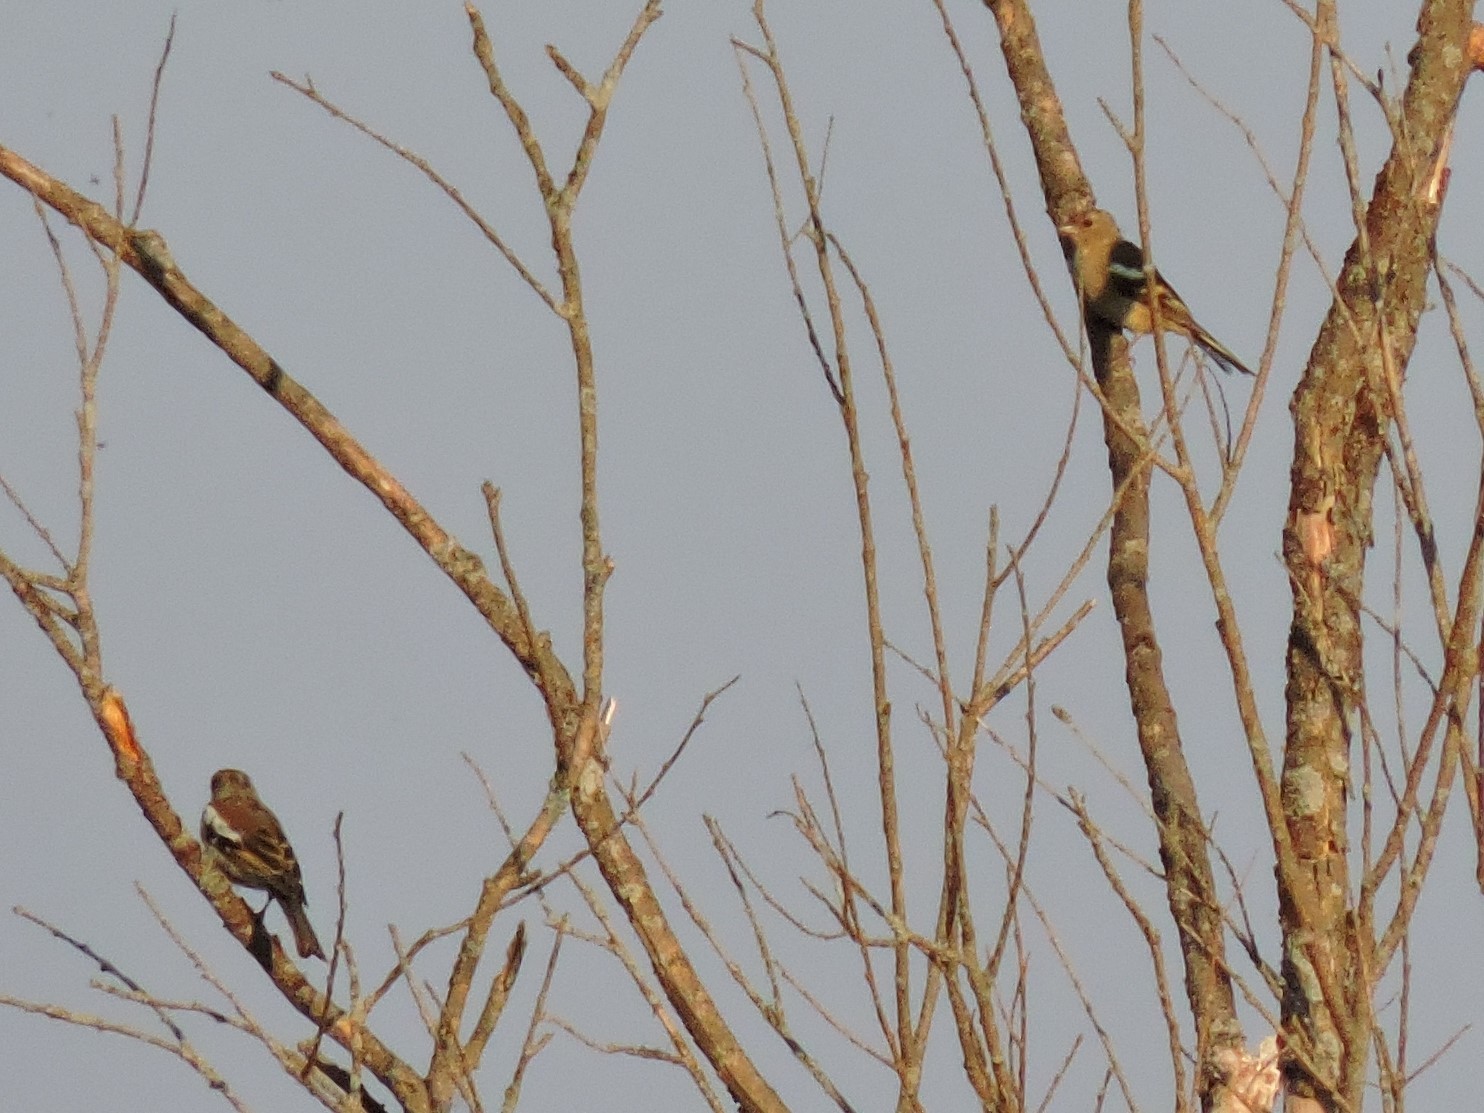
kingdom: Animalia
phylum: Chordata
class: Aves
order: Passeriformes
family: Fringillidae
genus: Fringilla
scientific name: Fringilla coelebs
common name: Common chaffinch
